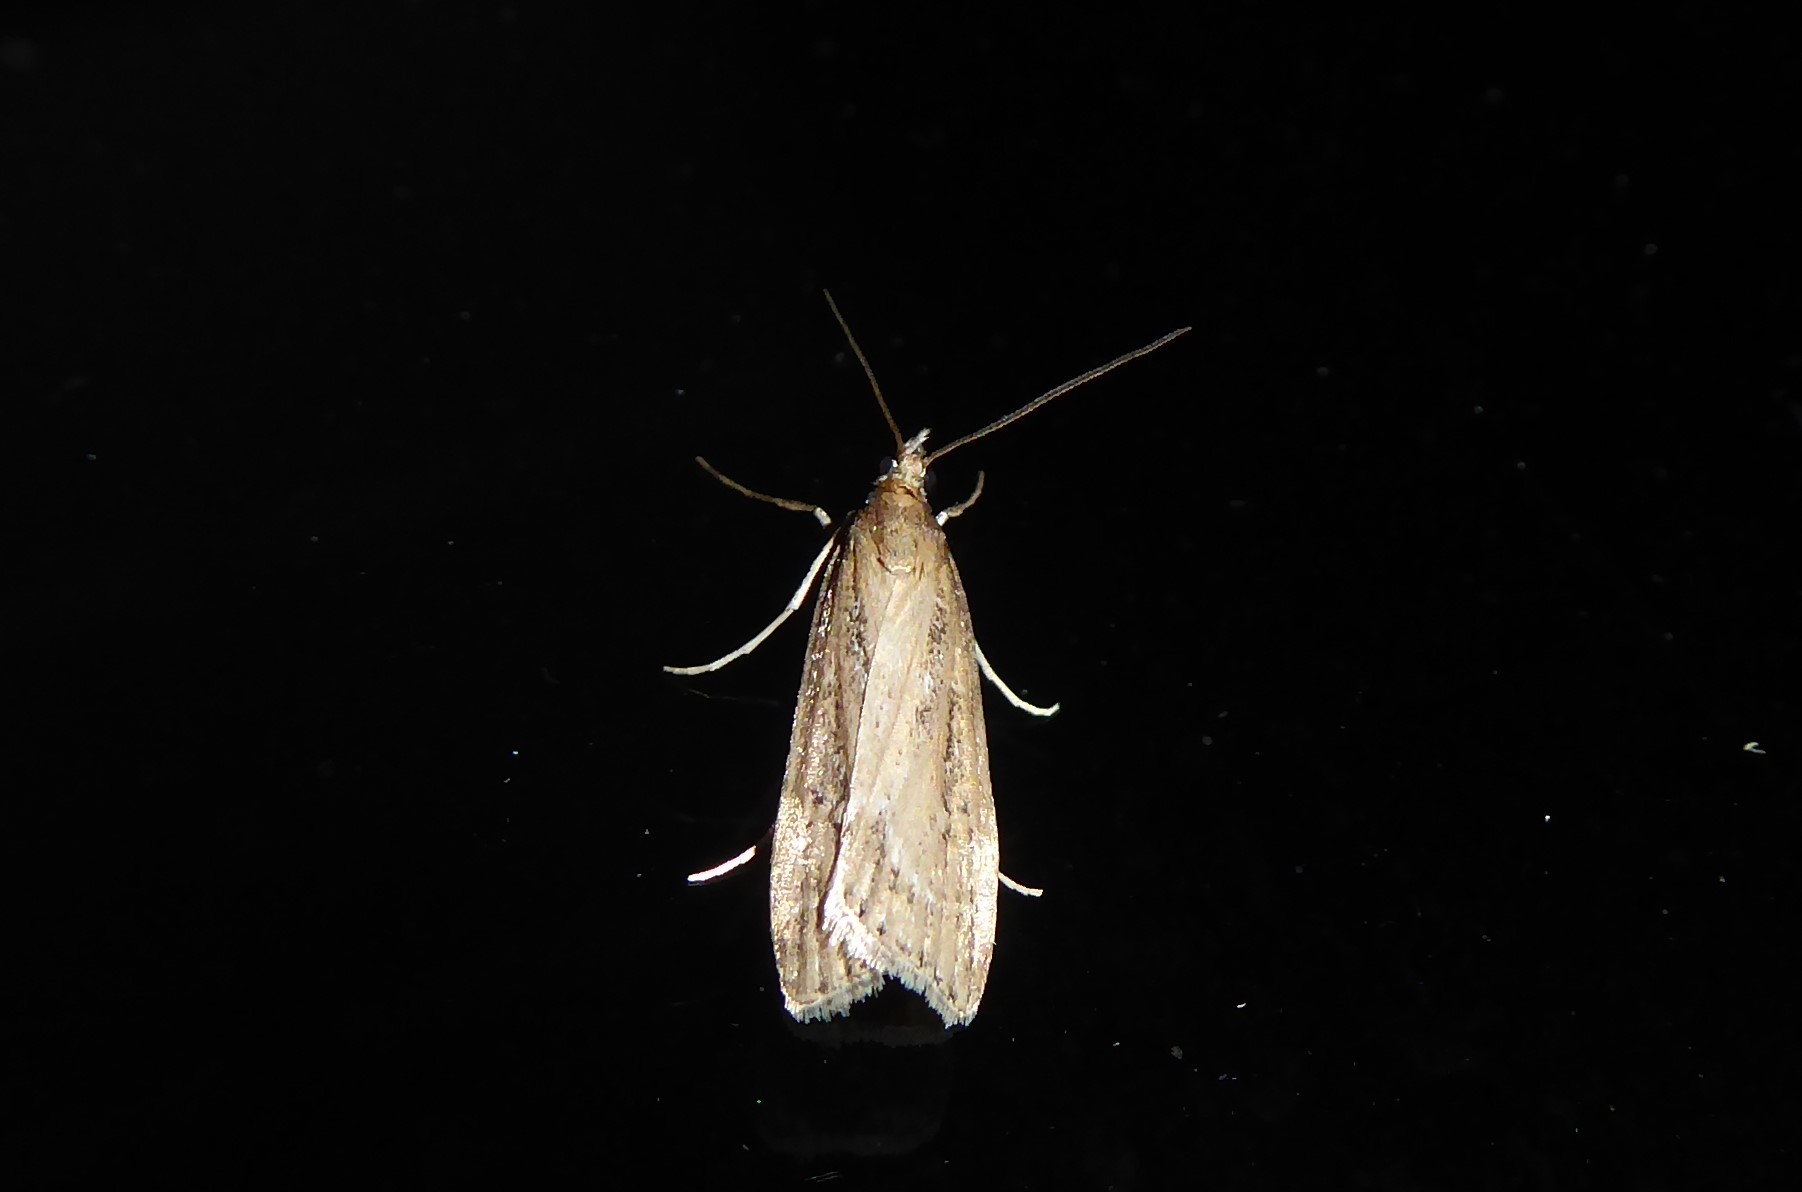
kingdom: Animalia
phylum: Arthropoda
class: Insecta
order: Lepidoptera
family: Crambidae
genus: Eudonia
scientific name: Eudonia octophora
